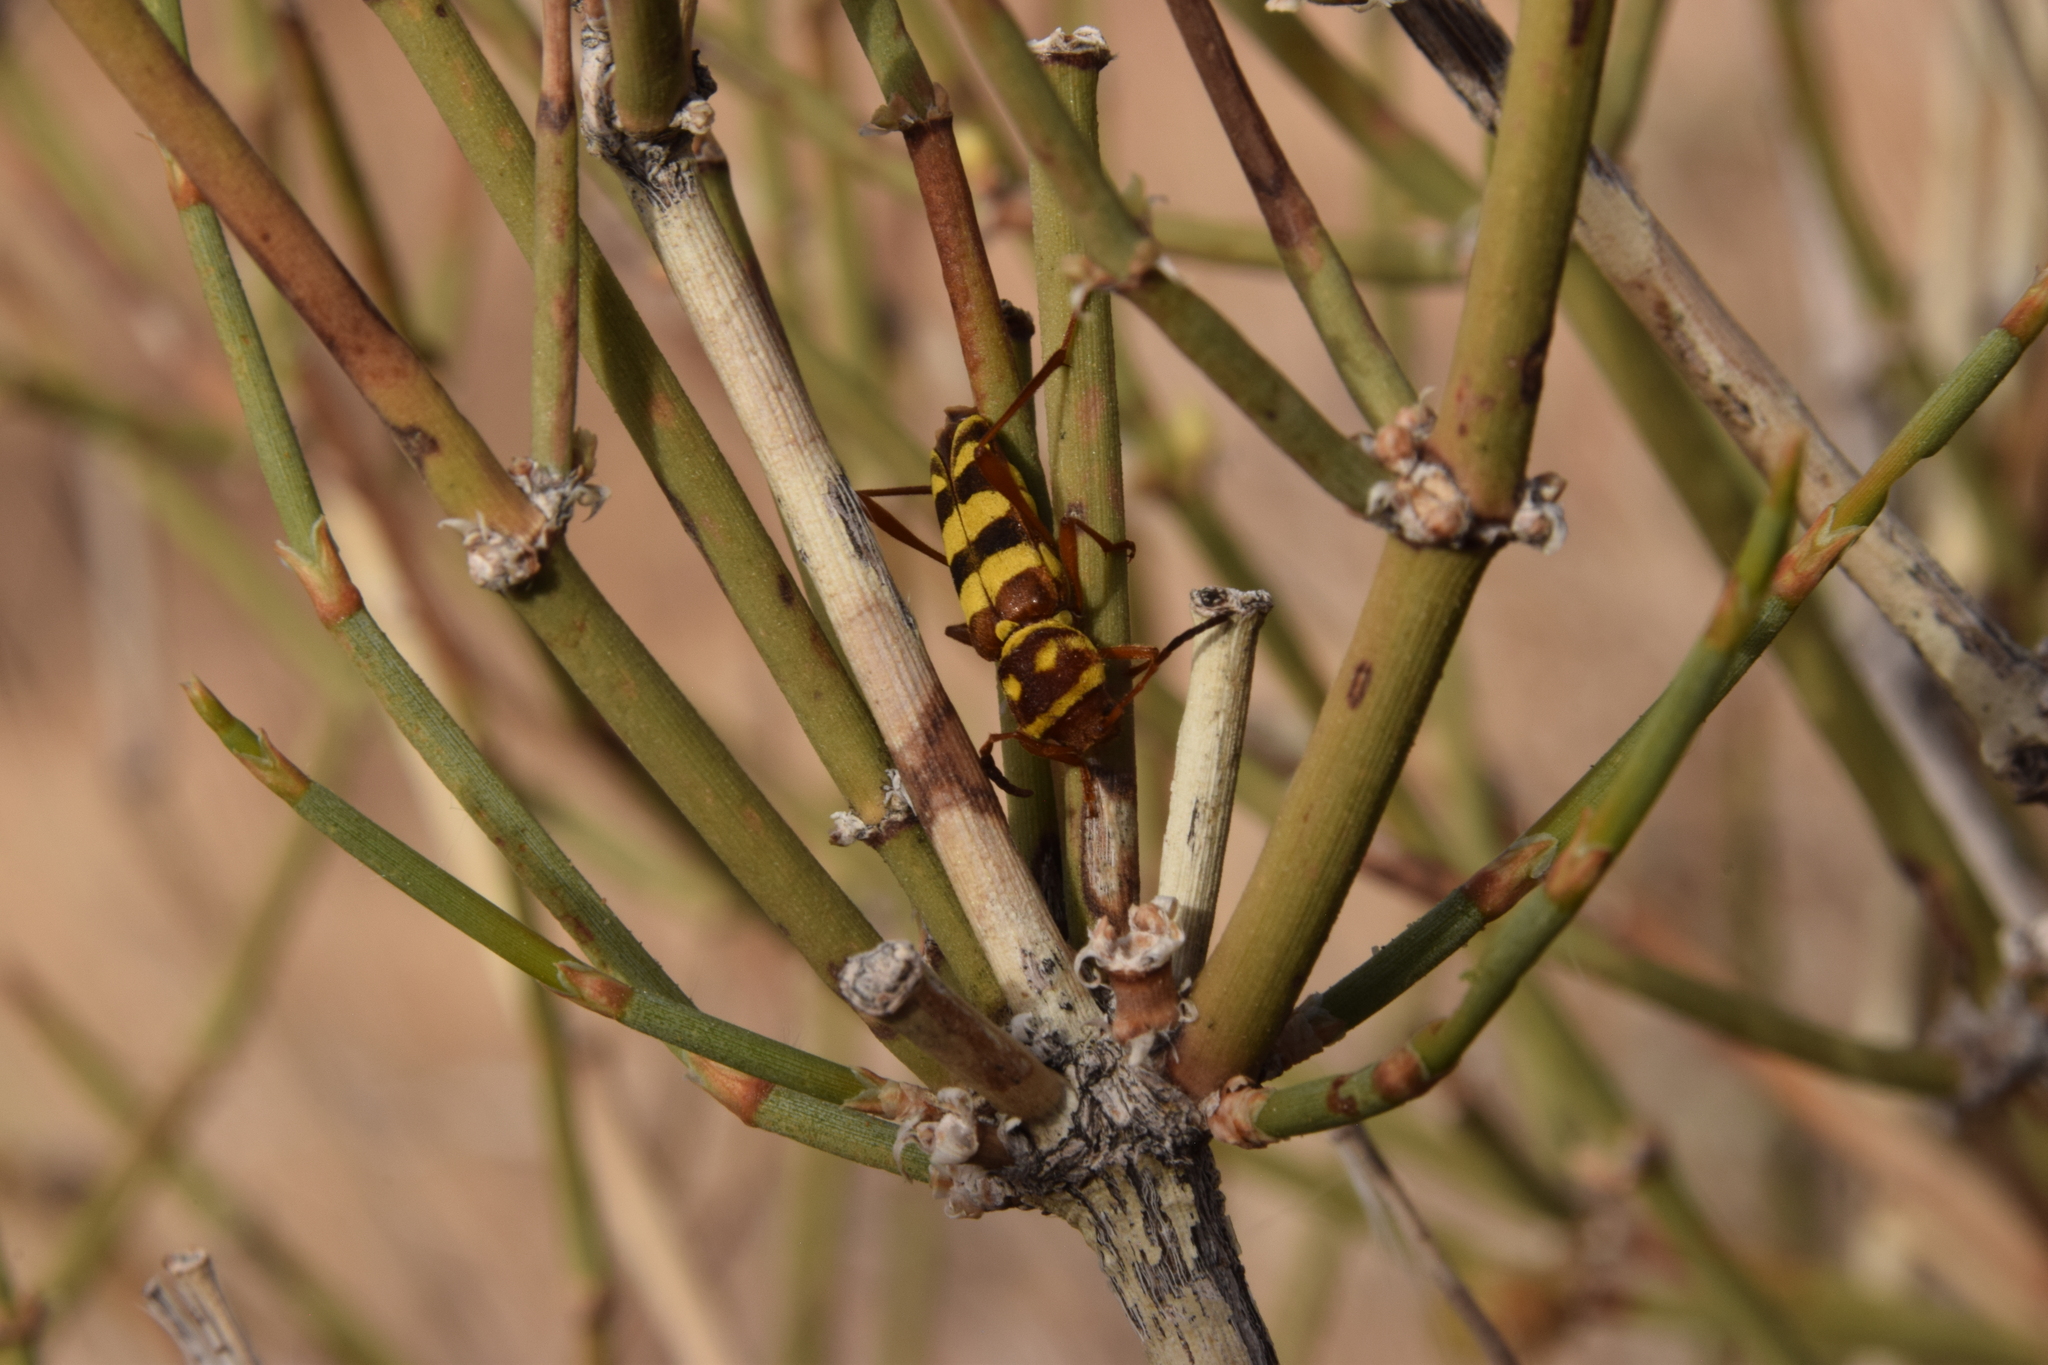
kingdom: Animalia
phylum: Arthropoda
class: Insecta
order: Coleoptera
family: Cerambycidae
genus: Neoclytus
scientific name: Neoclytus provoanus
